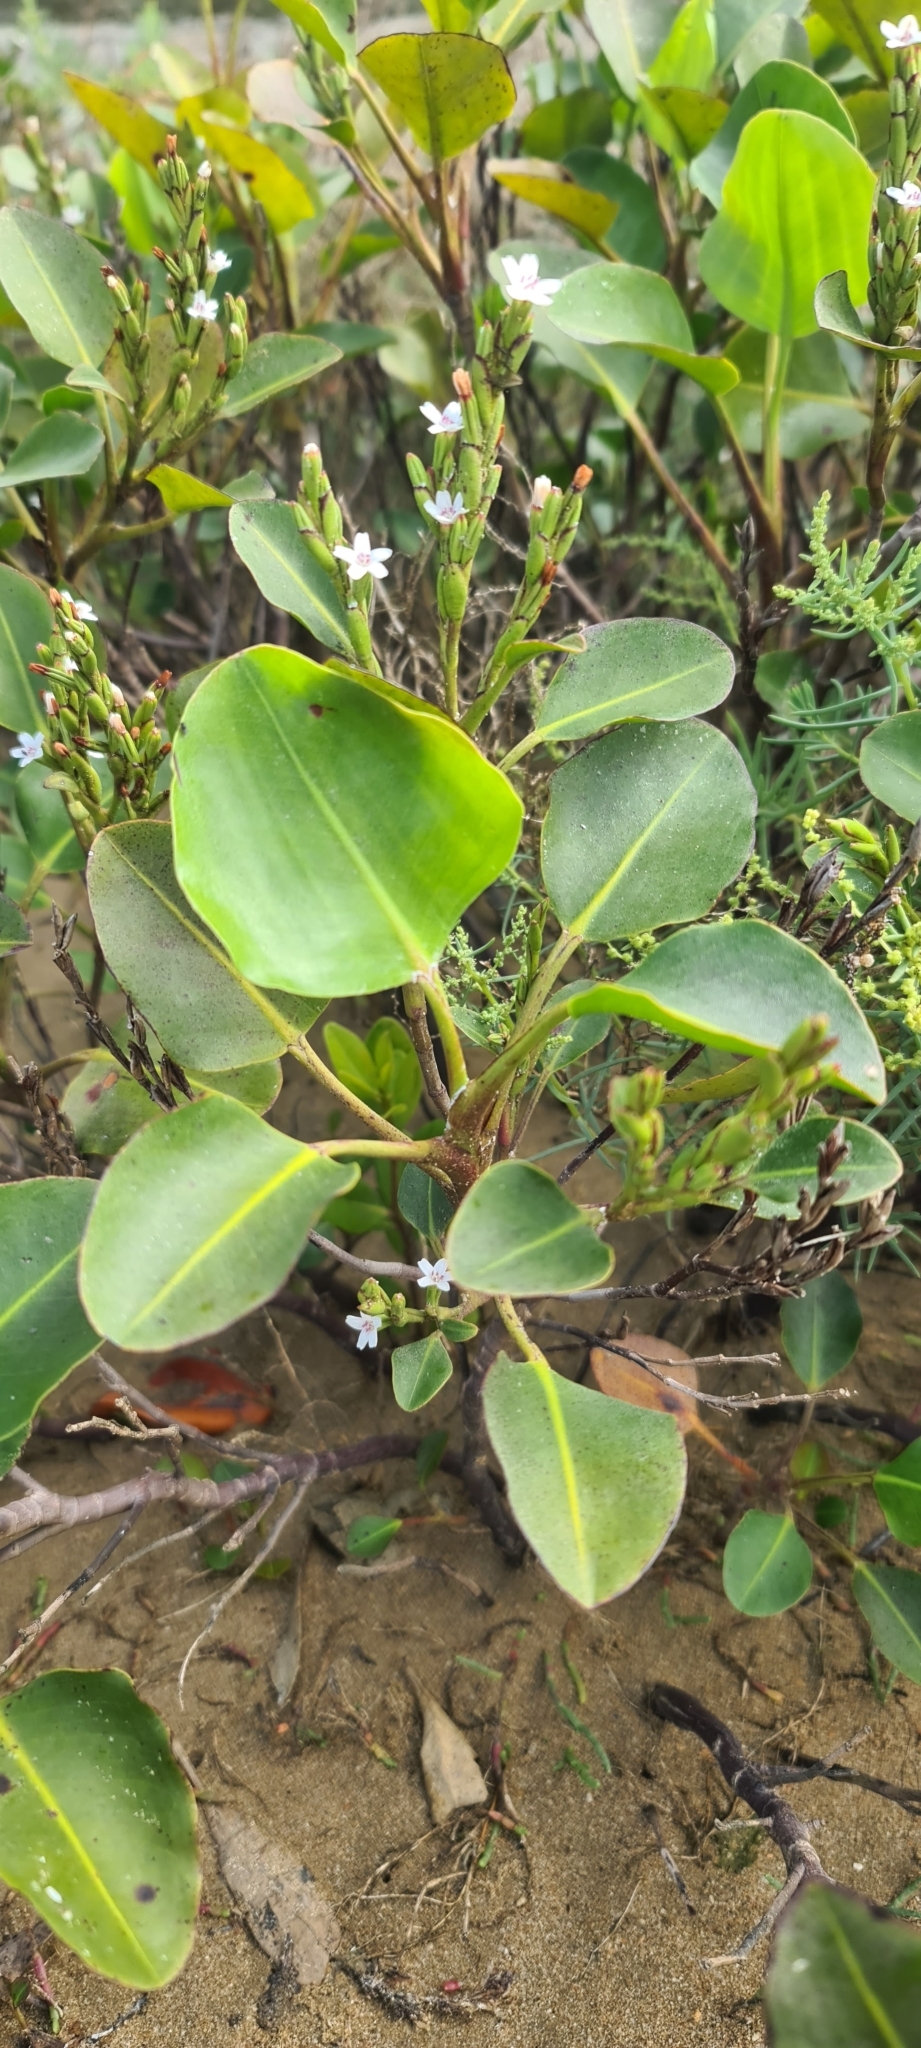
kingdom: Plantae
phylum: Tracheophyta
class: Magnoliopsida
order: Caryophyllales
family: Plumbaginaceae
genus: Aegialitis
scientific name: Aegialitis annulata
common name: Club mangrove
